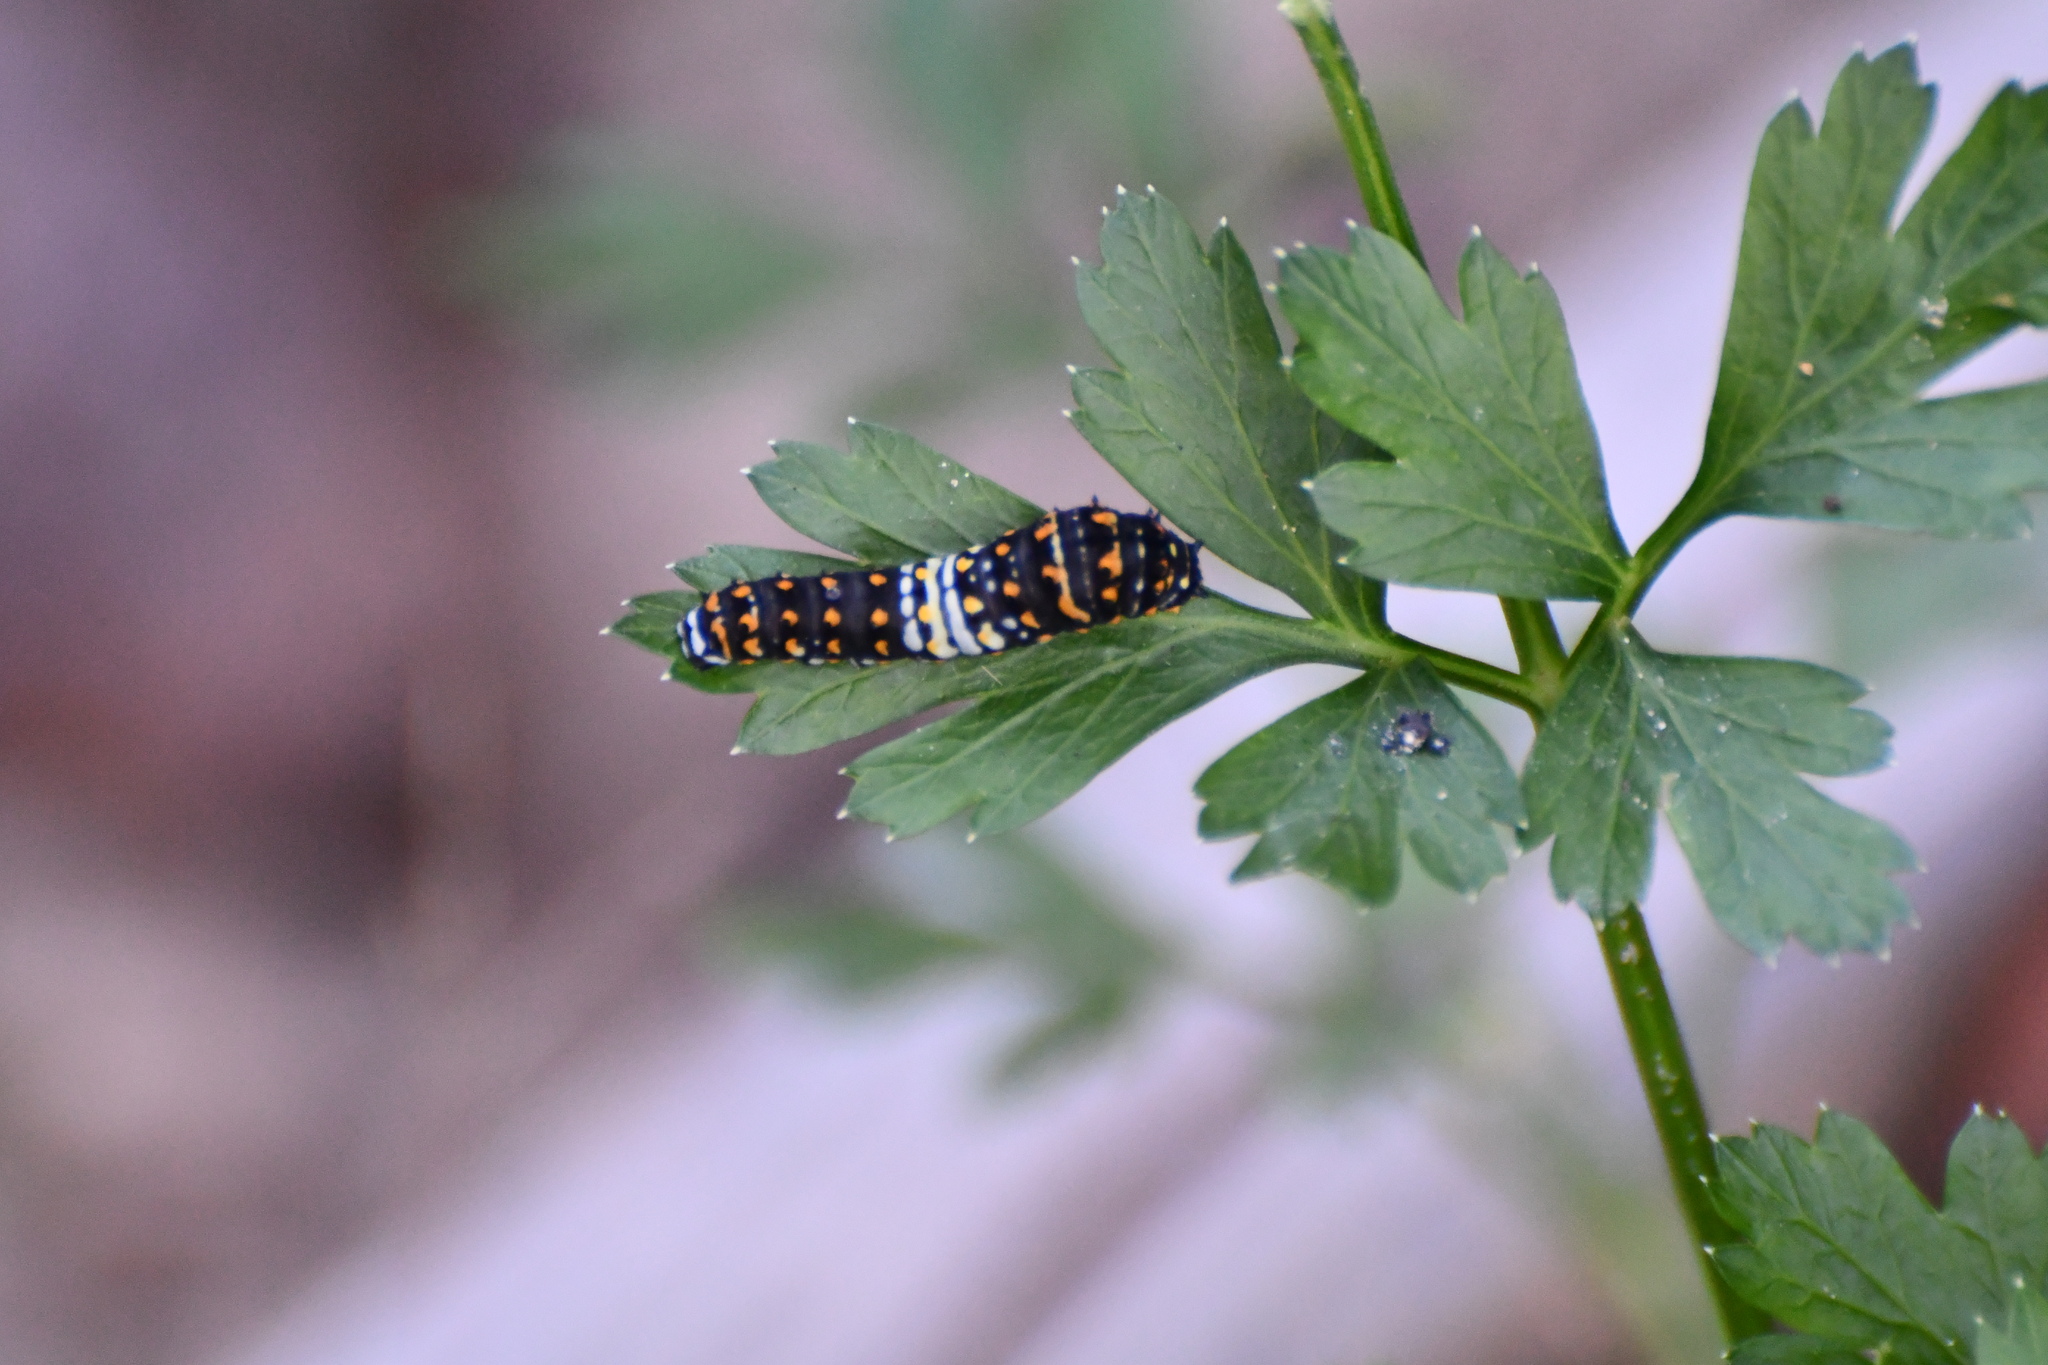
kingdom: Animalia
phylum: Arthropoda
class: Insecta
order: Lepidoptera
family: Papilionidae
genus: Papilio
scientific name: Papilio polyxenes
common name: Black swallowtail
